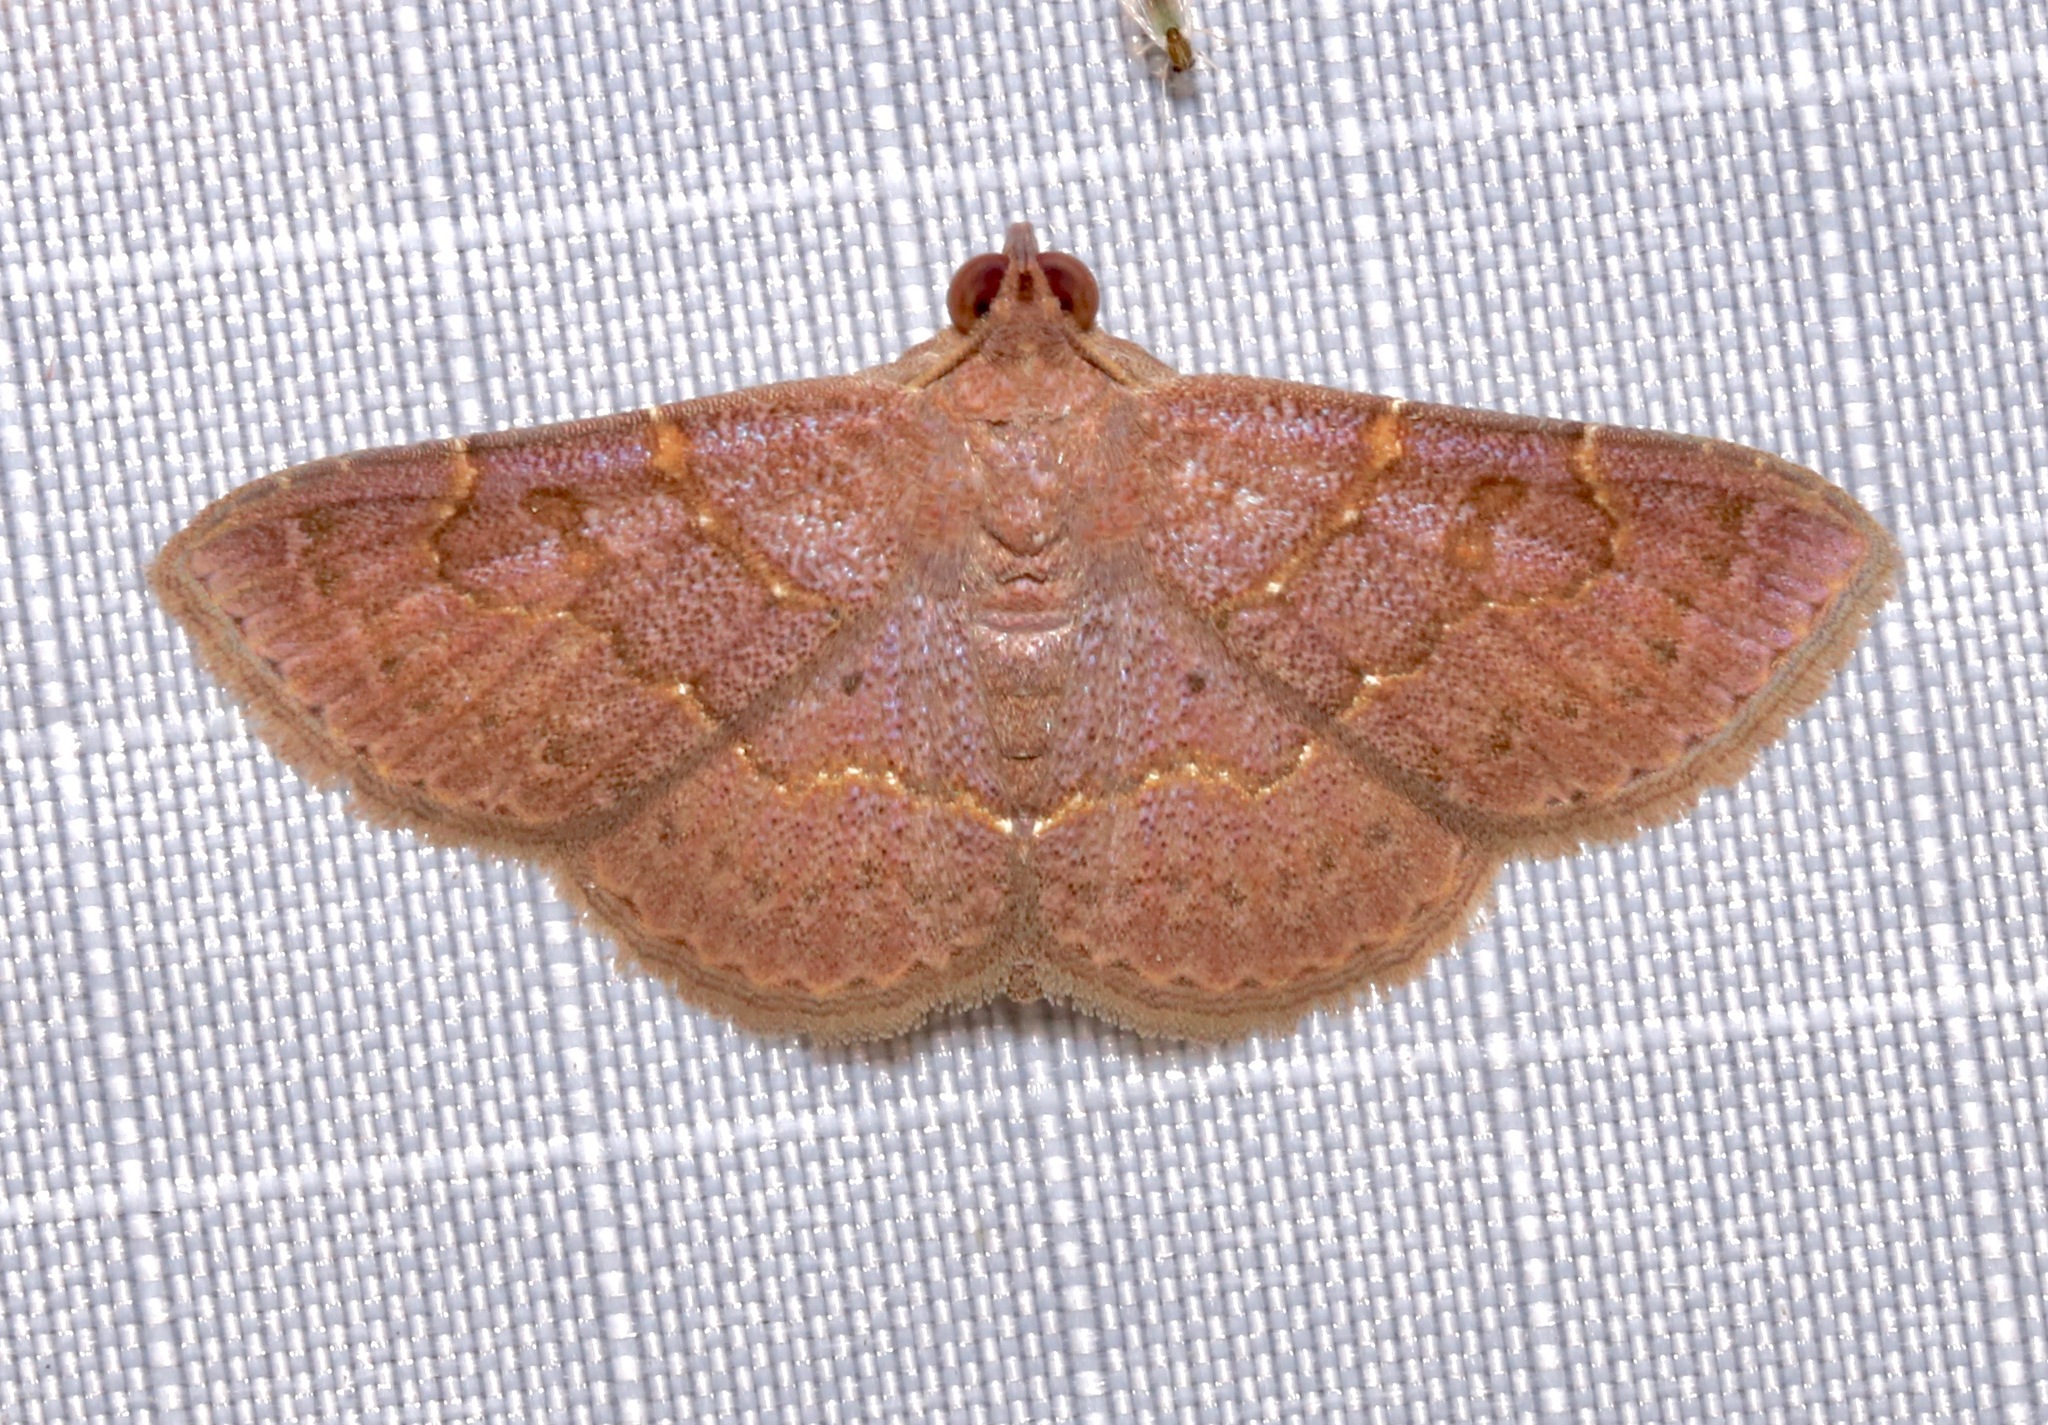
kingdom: Animalia
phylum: Arthropoda
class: Insecta
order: Lepidoptera
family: Erebidae
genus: Antiblemma
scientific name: Antiblemma perva
